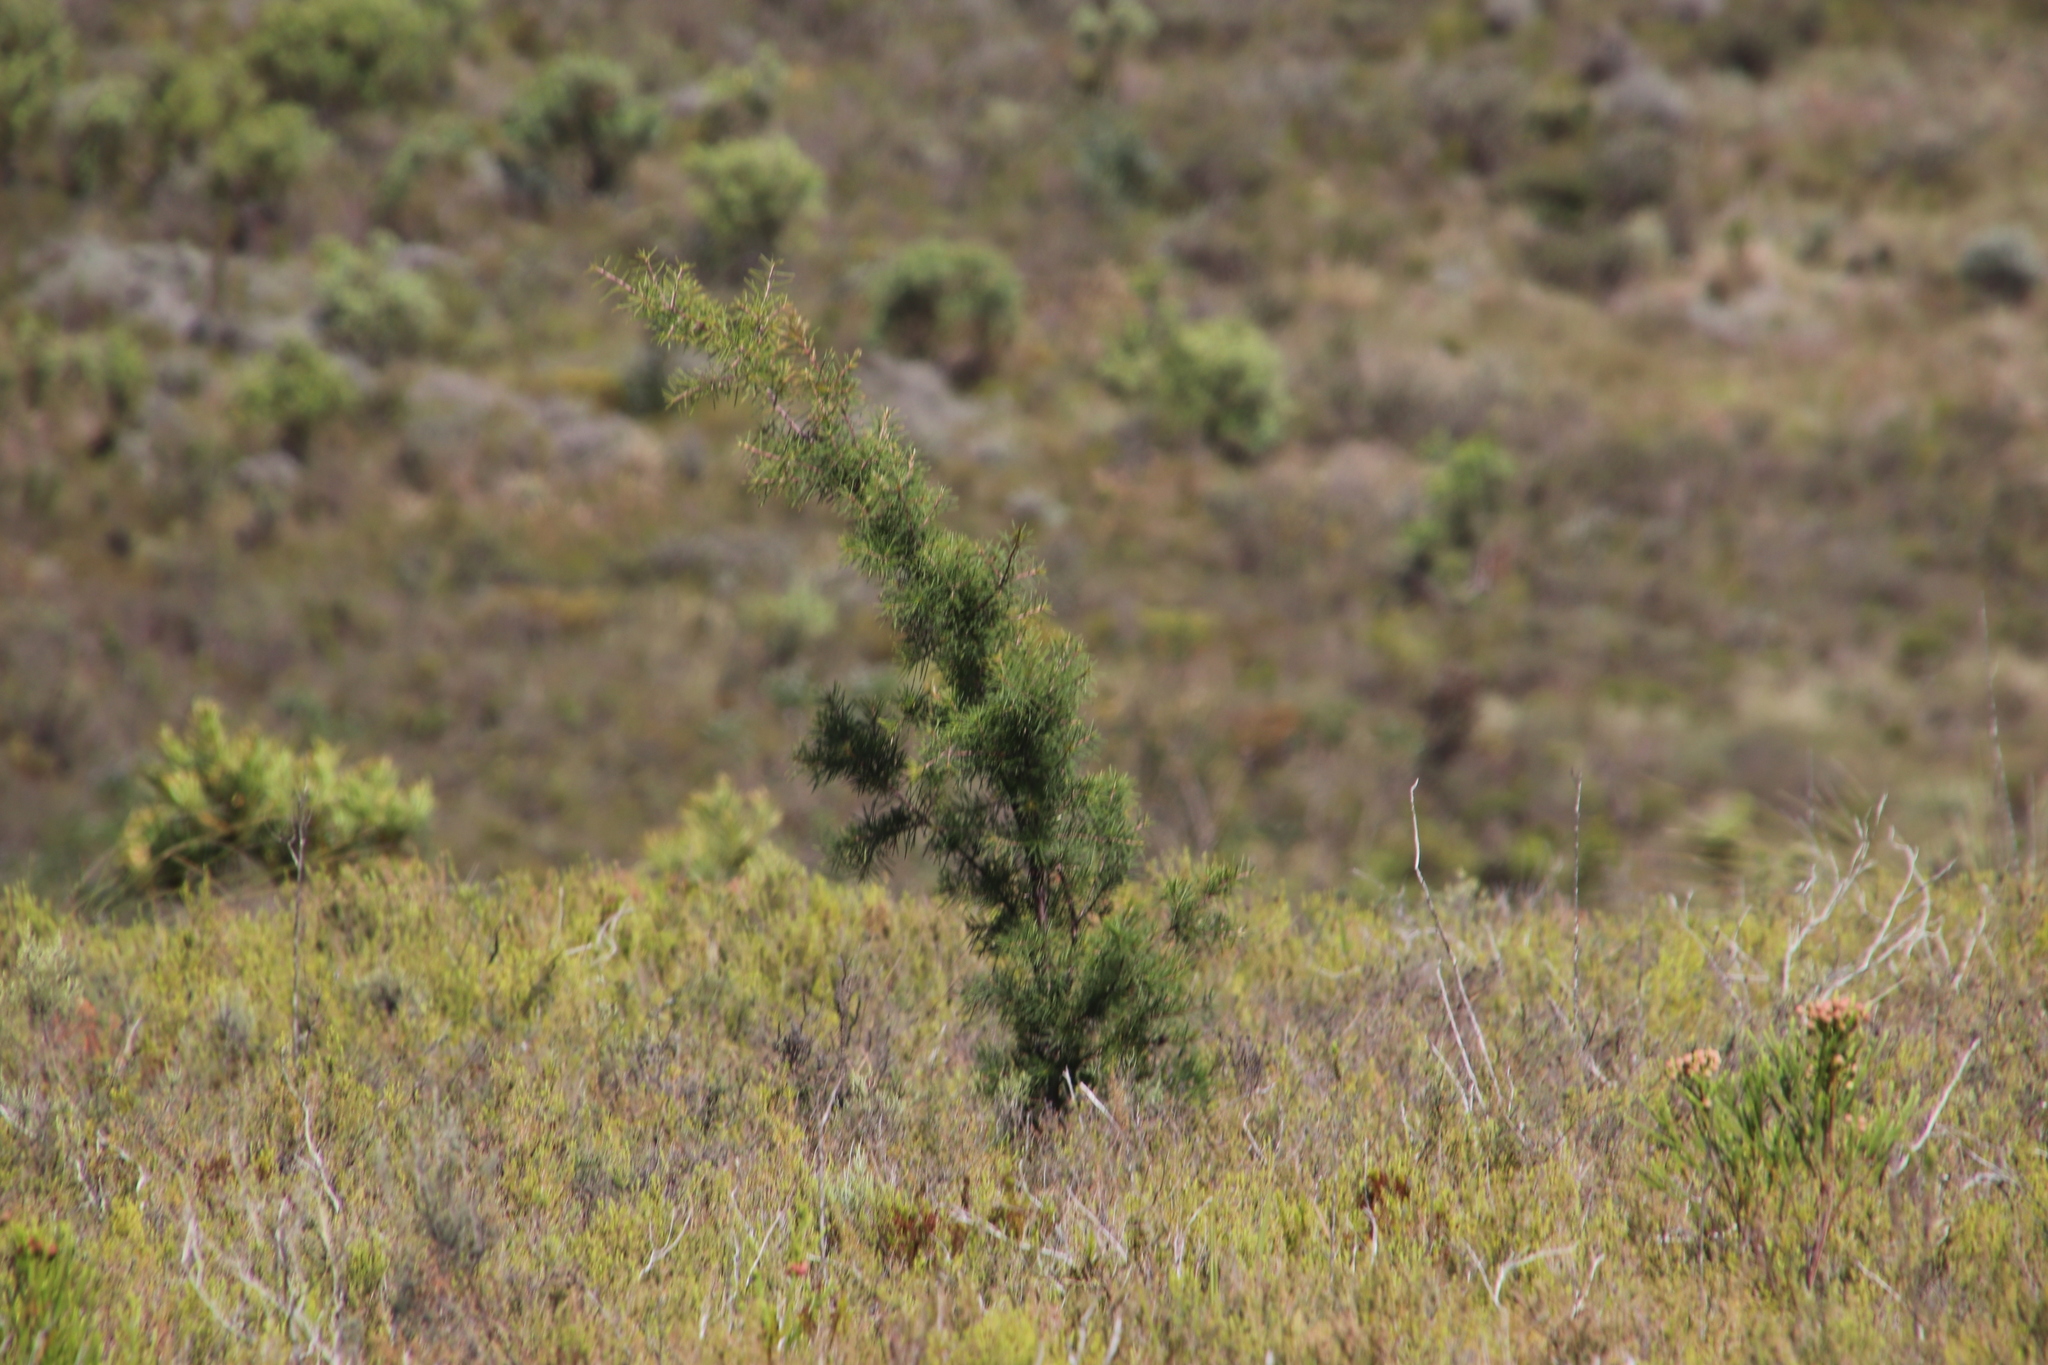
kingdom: Plantae
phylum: Tracheophyta
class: Magnoliopsida
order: Proteales
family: Proteaceae
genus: Hakea
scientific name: Hakea sericea
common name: Needle bush
